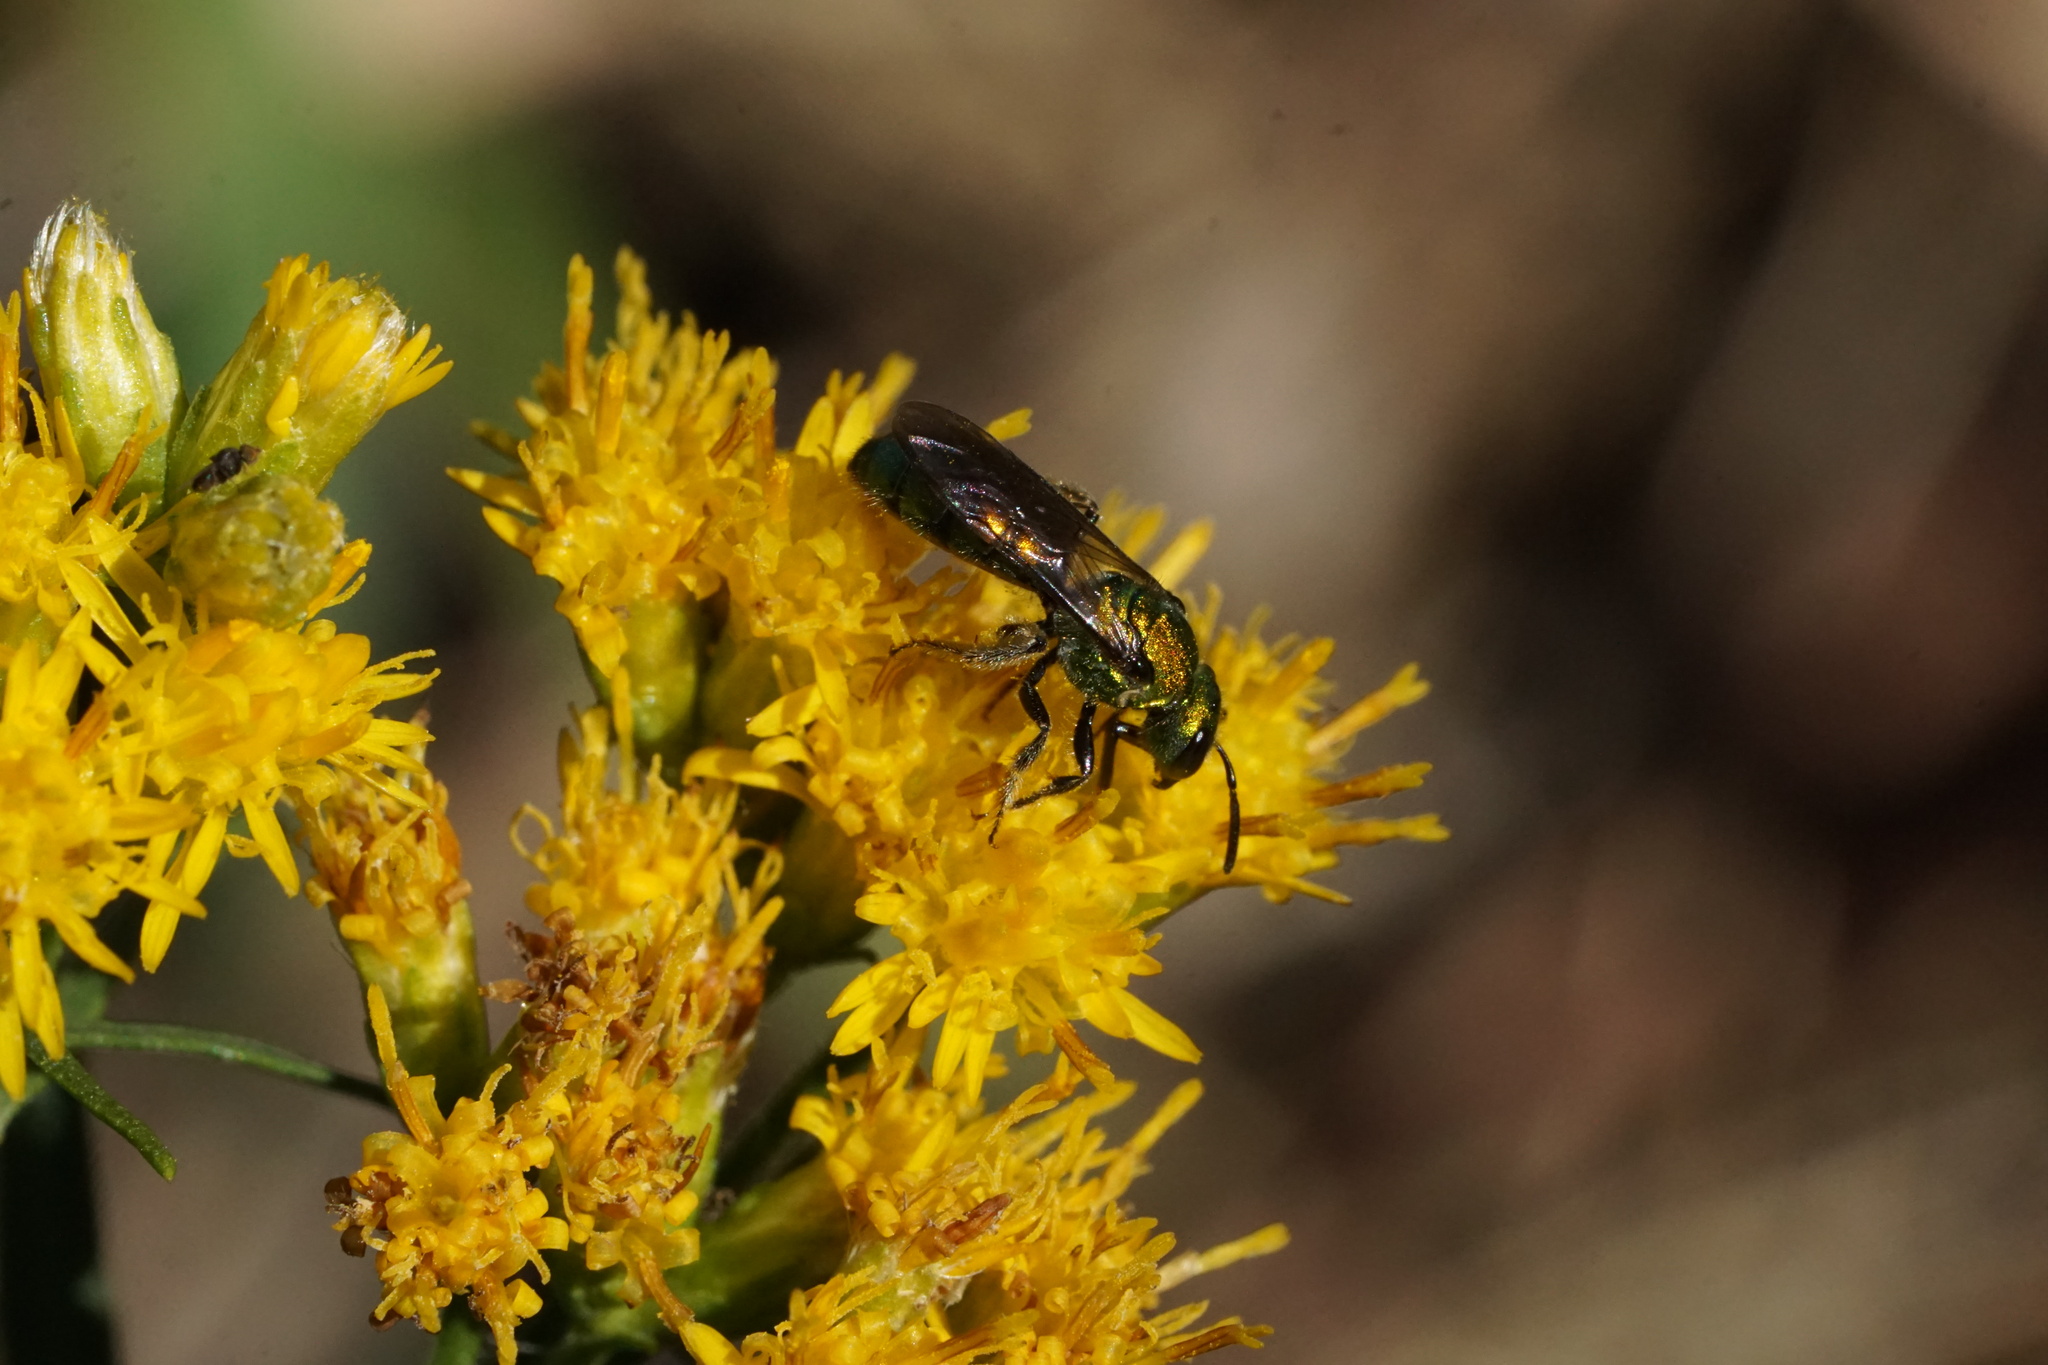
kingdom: Animalia
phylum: Arthropoda
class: Insecta
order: Hymenoptera
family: Halictidae
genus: Augochlora
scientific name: Augochlora pura
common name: Pure green sweat bee
